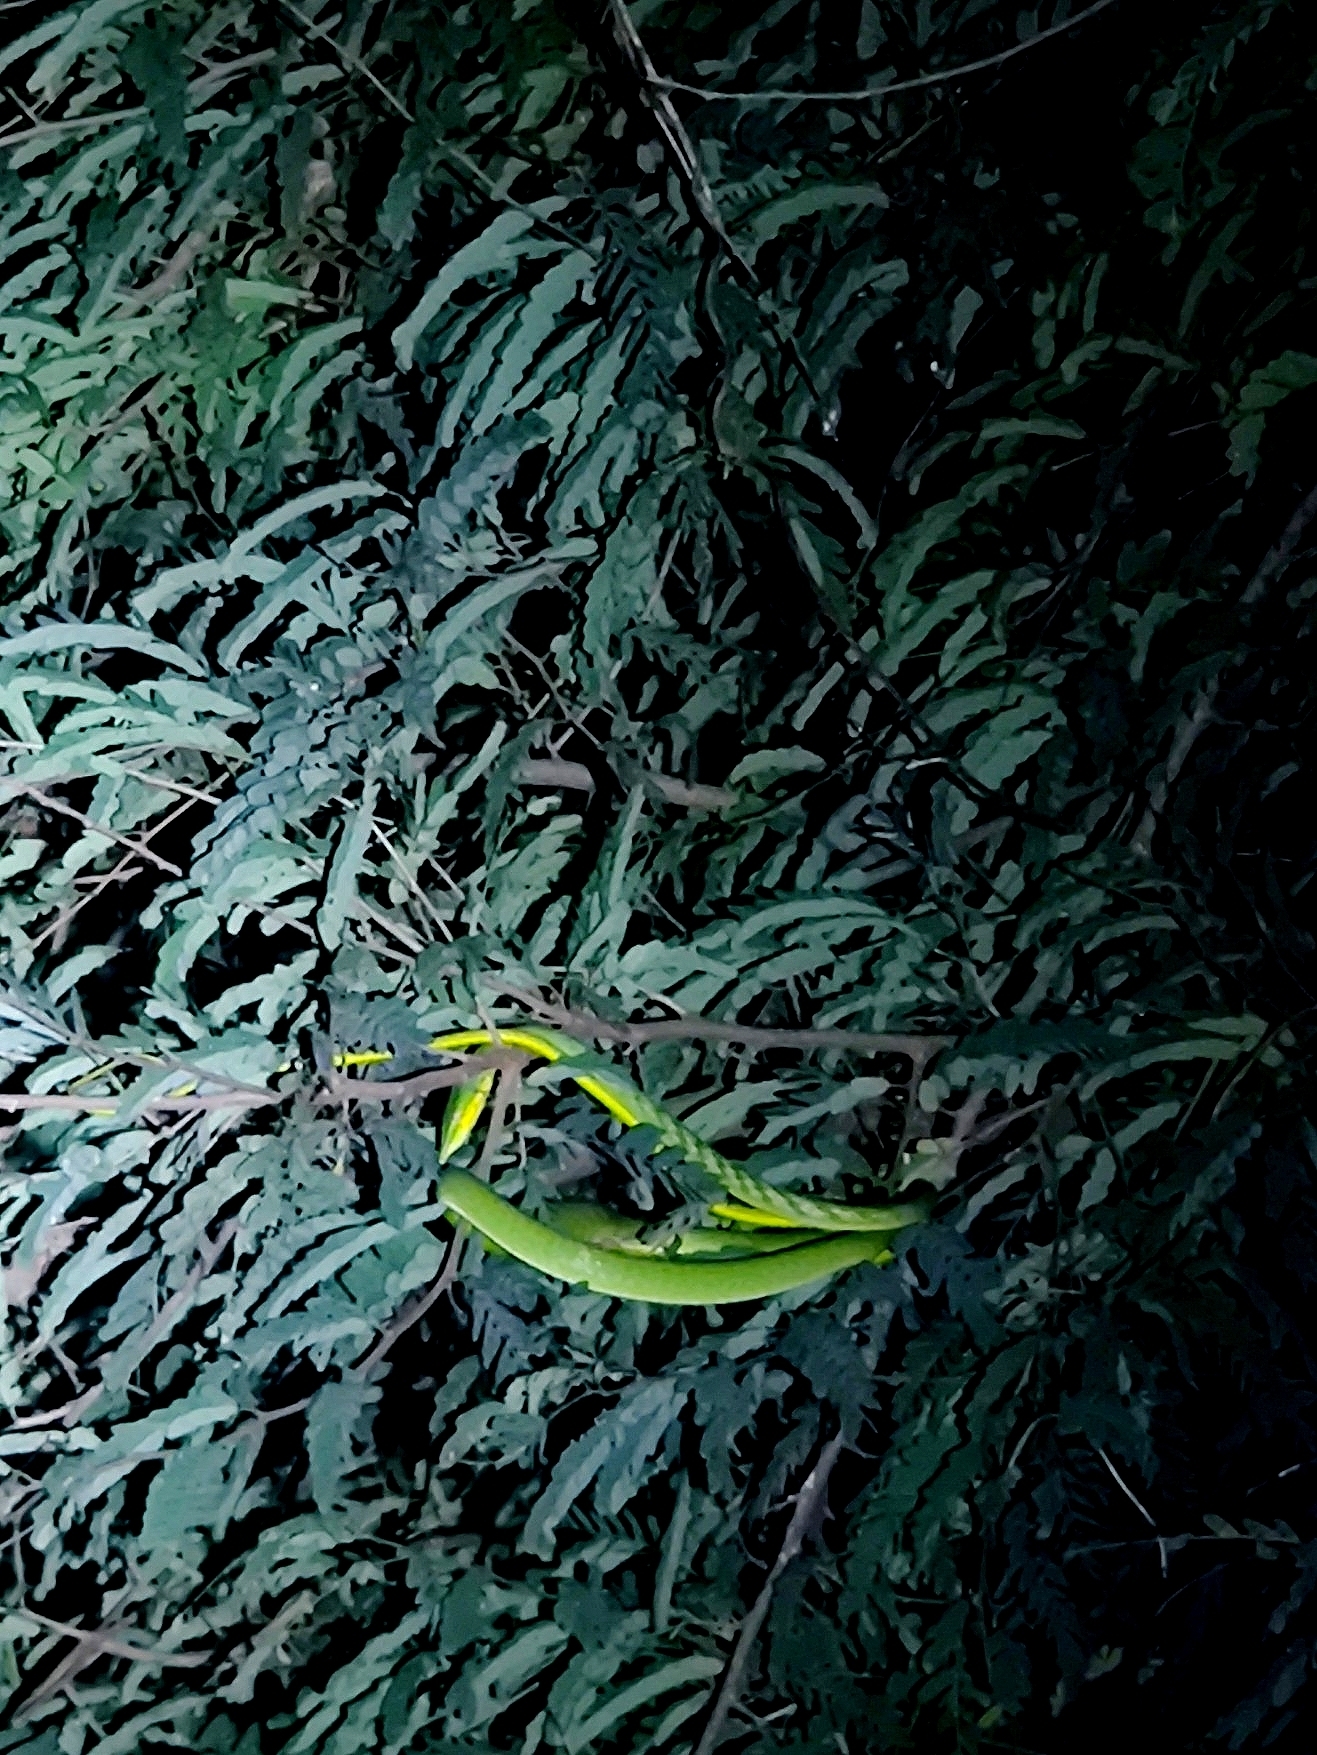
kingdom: Animalia
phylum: Chordata
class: Squamata
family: Colubridae
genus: Ahaetulla
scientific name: Ahaetulla oxyrhyncha
